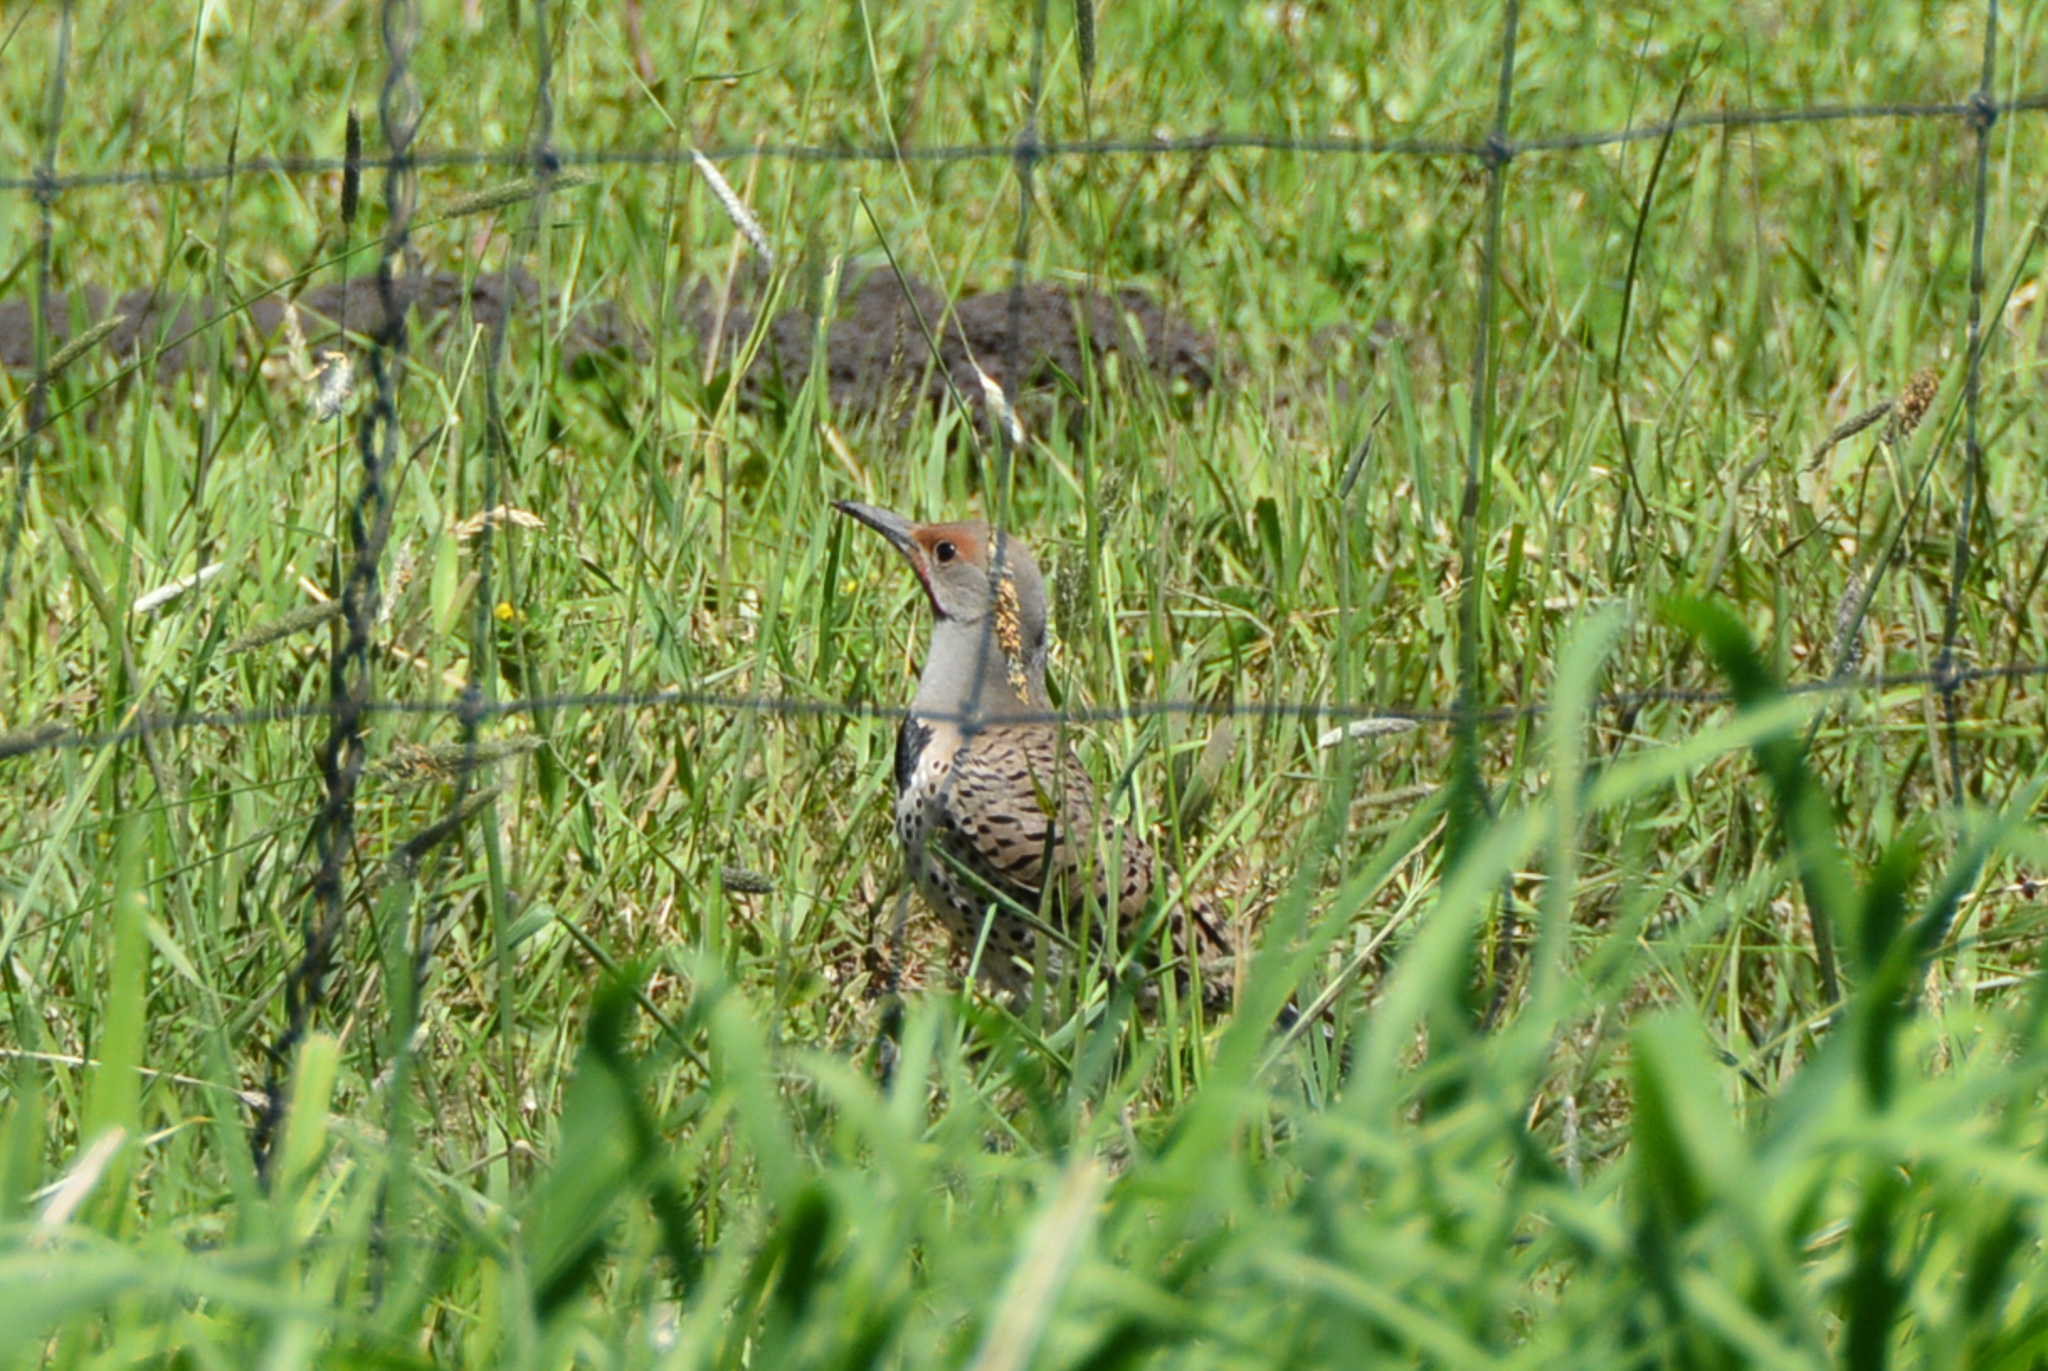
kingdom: Animalia
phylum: Chordata
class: Aves
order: Piciformes
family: Picidae
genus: Colaptes
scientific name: Colaptes auratus
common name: Northern flicker
